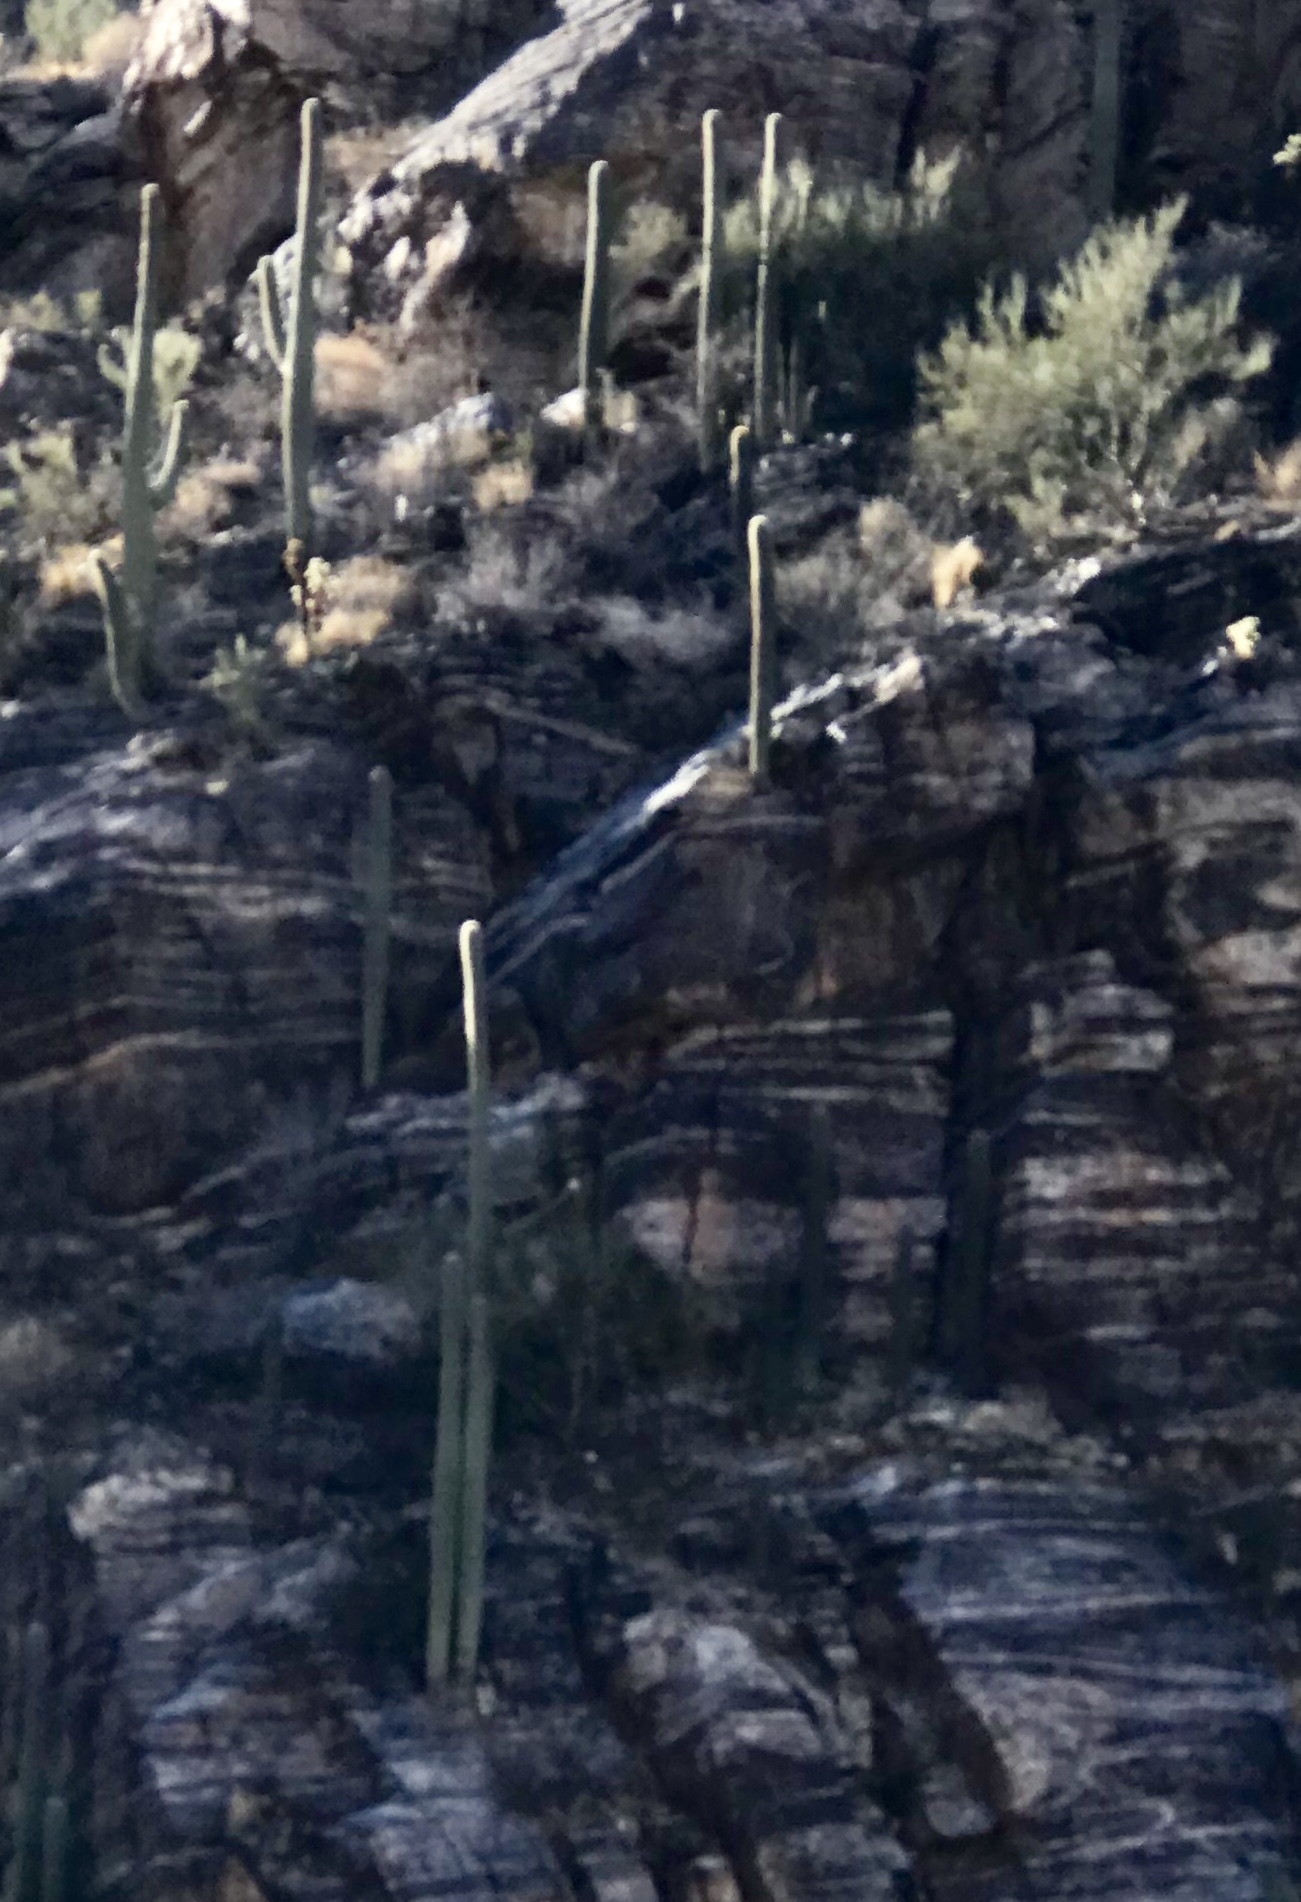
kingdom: Plantae
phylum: Tracheophyta
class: Magnoliopsida
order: Caryophyllales
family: Cactaceae
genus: Carnegiea
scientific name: Carnegiea gigantea
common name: Saguaro
